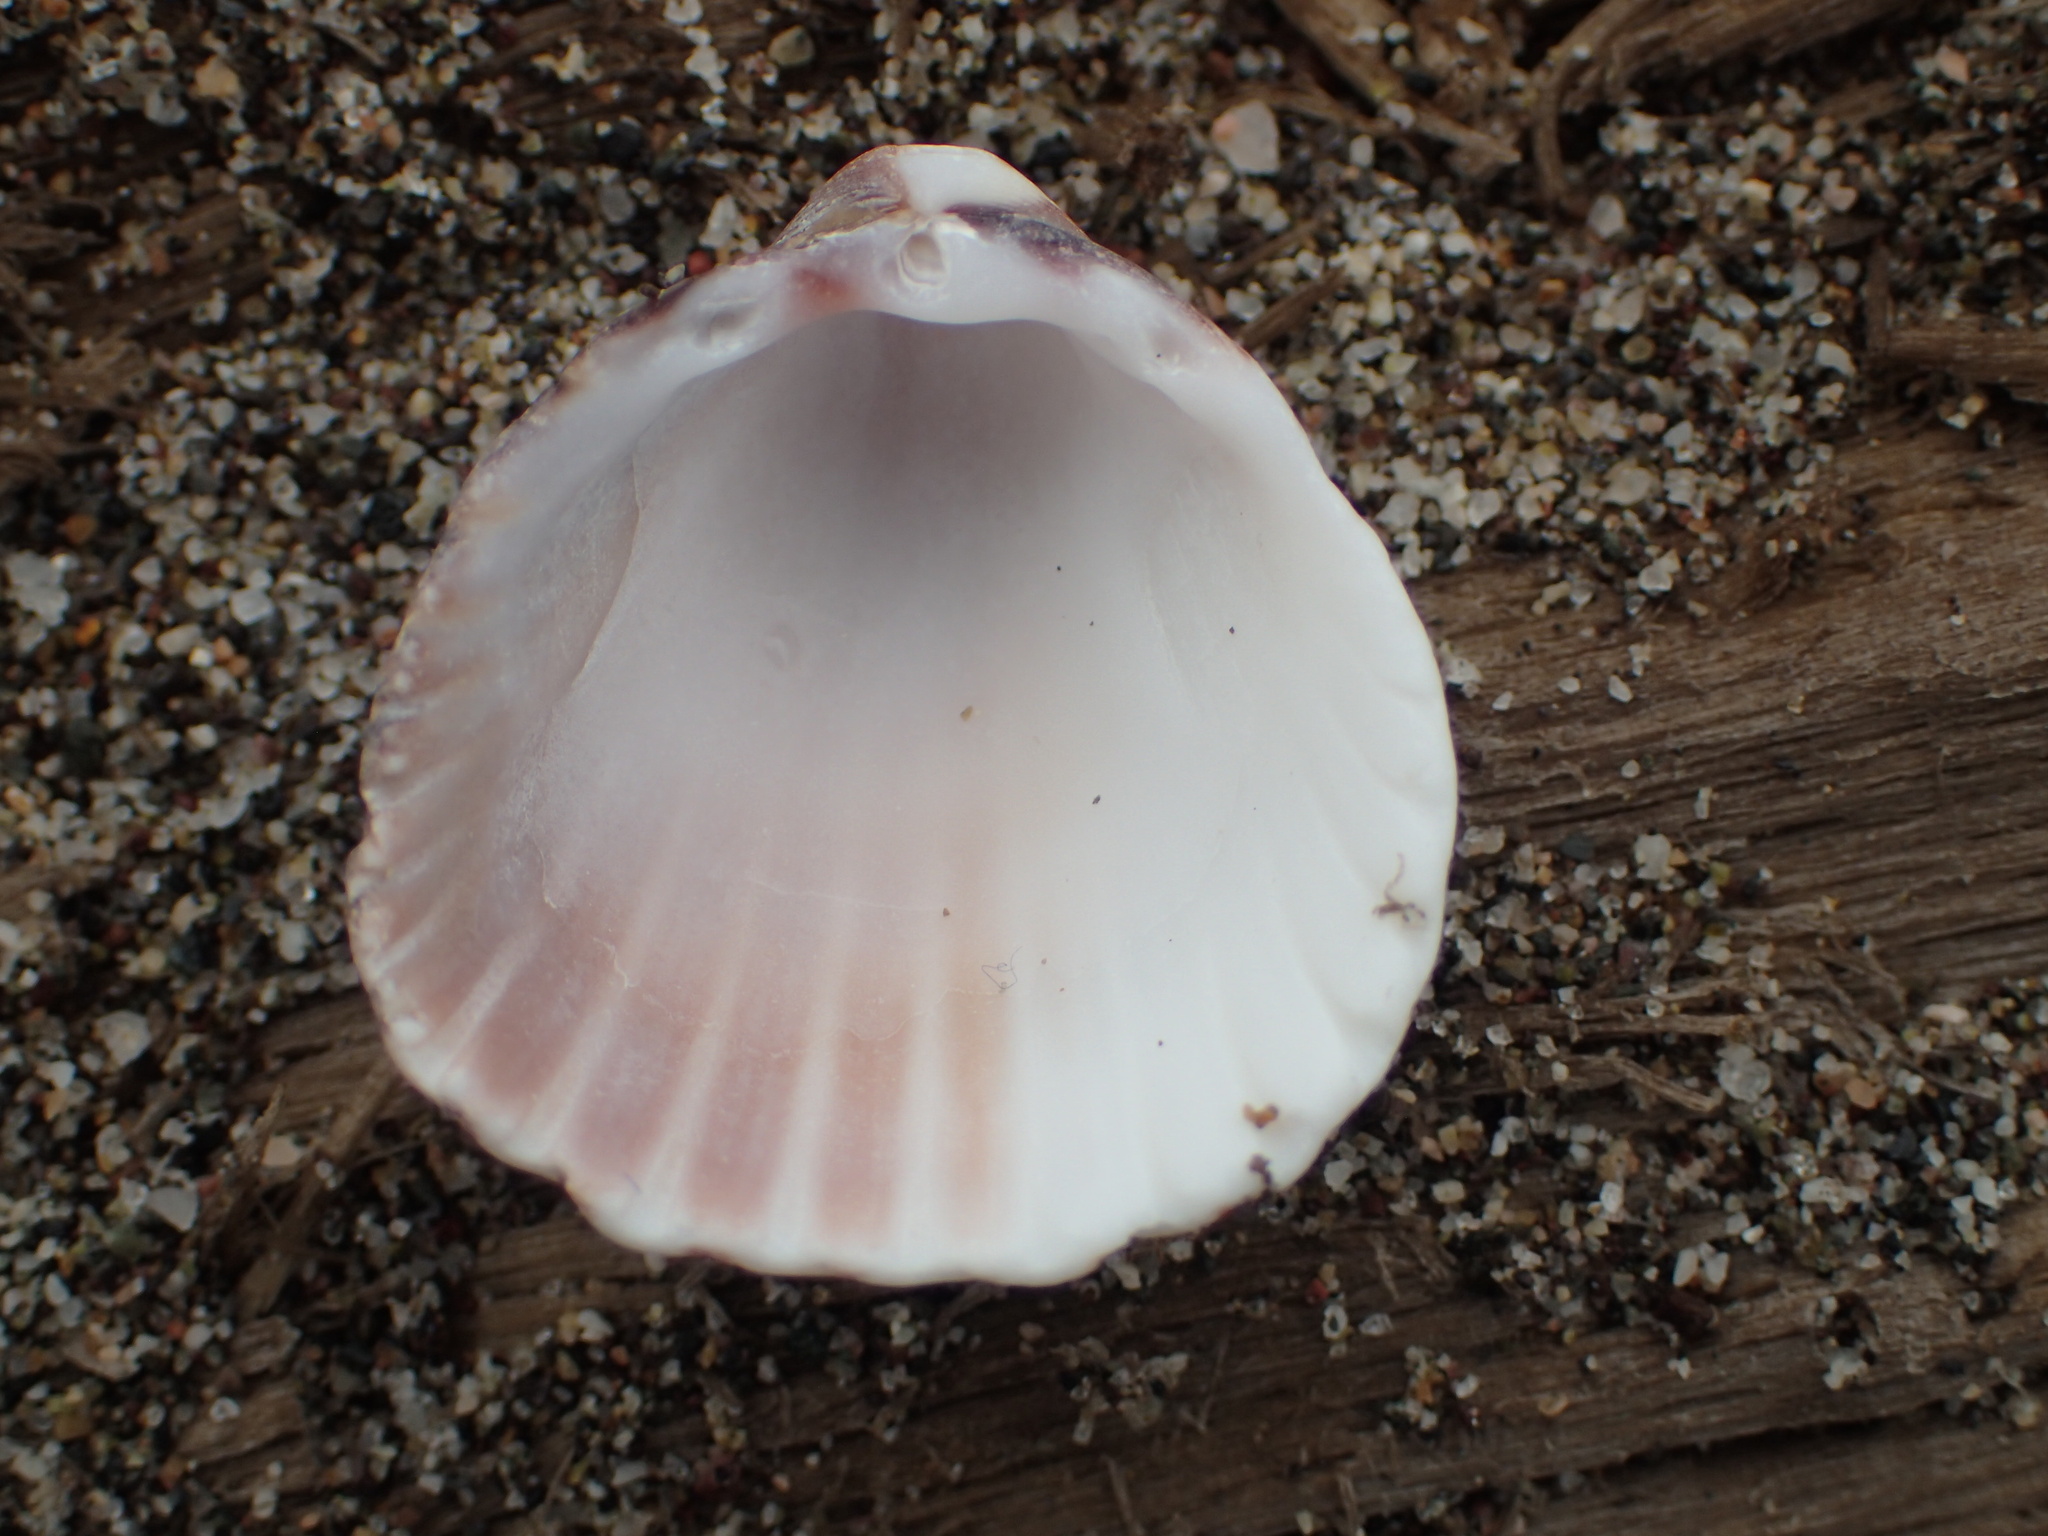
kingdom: Animalia
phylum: Mollusca
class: Bivalvia
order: Cardiida
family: Cardiidae
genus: Trachycardium
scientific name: Trachycardium procerum
